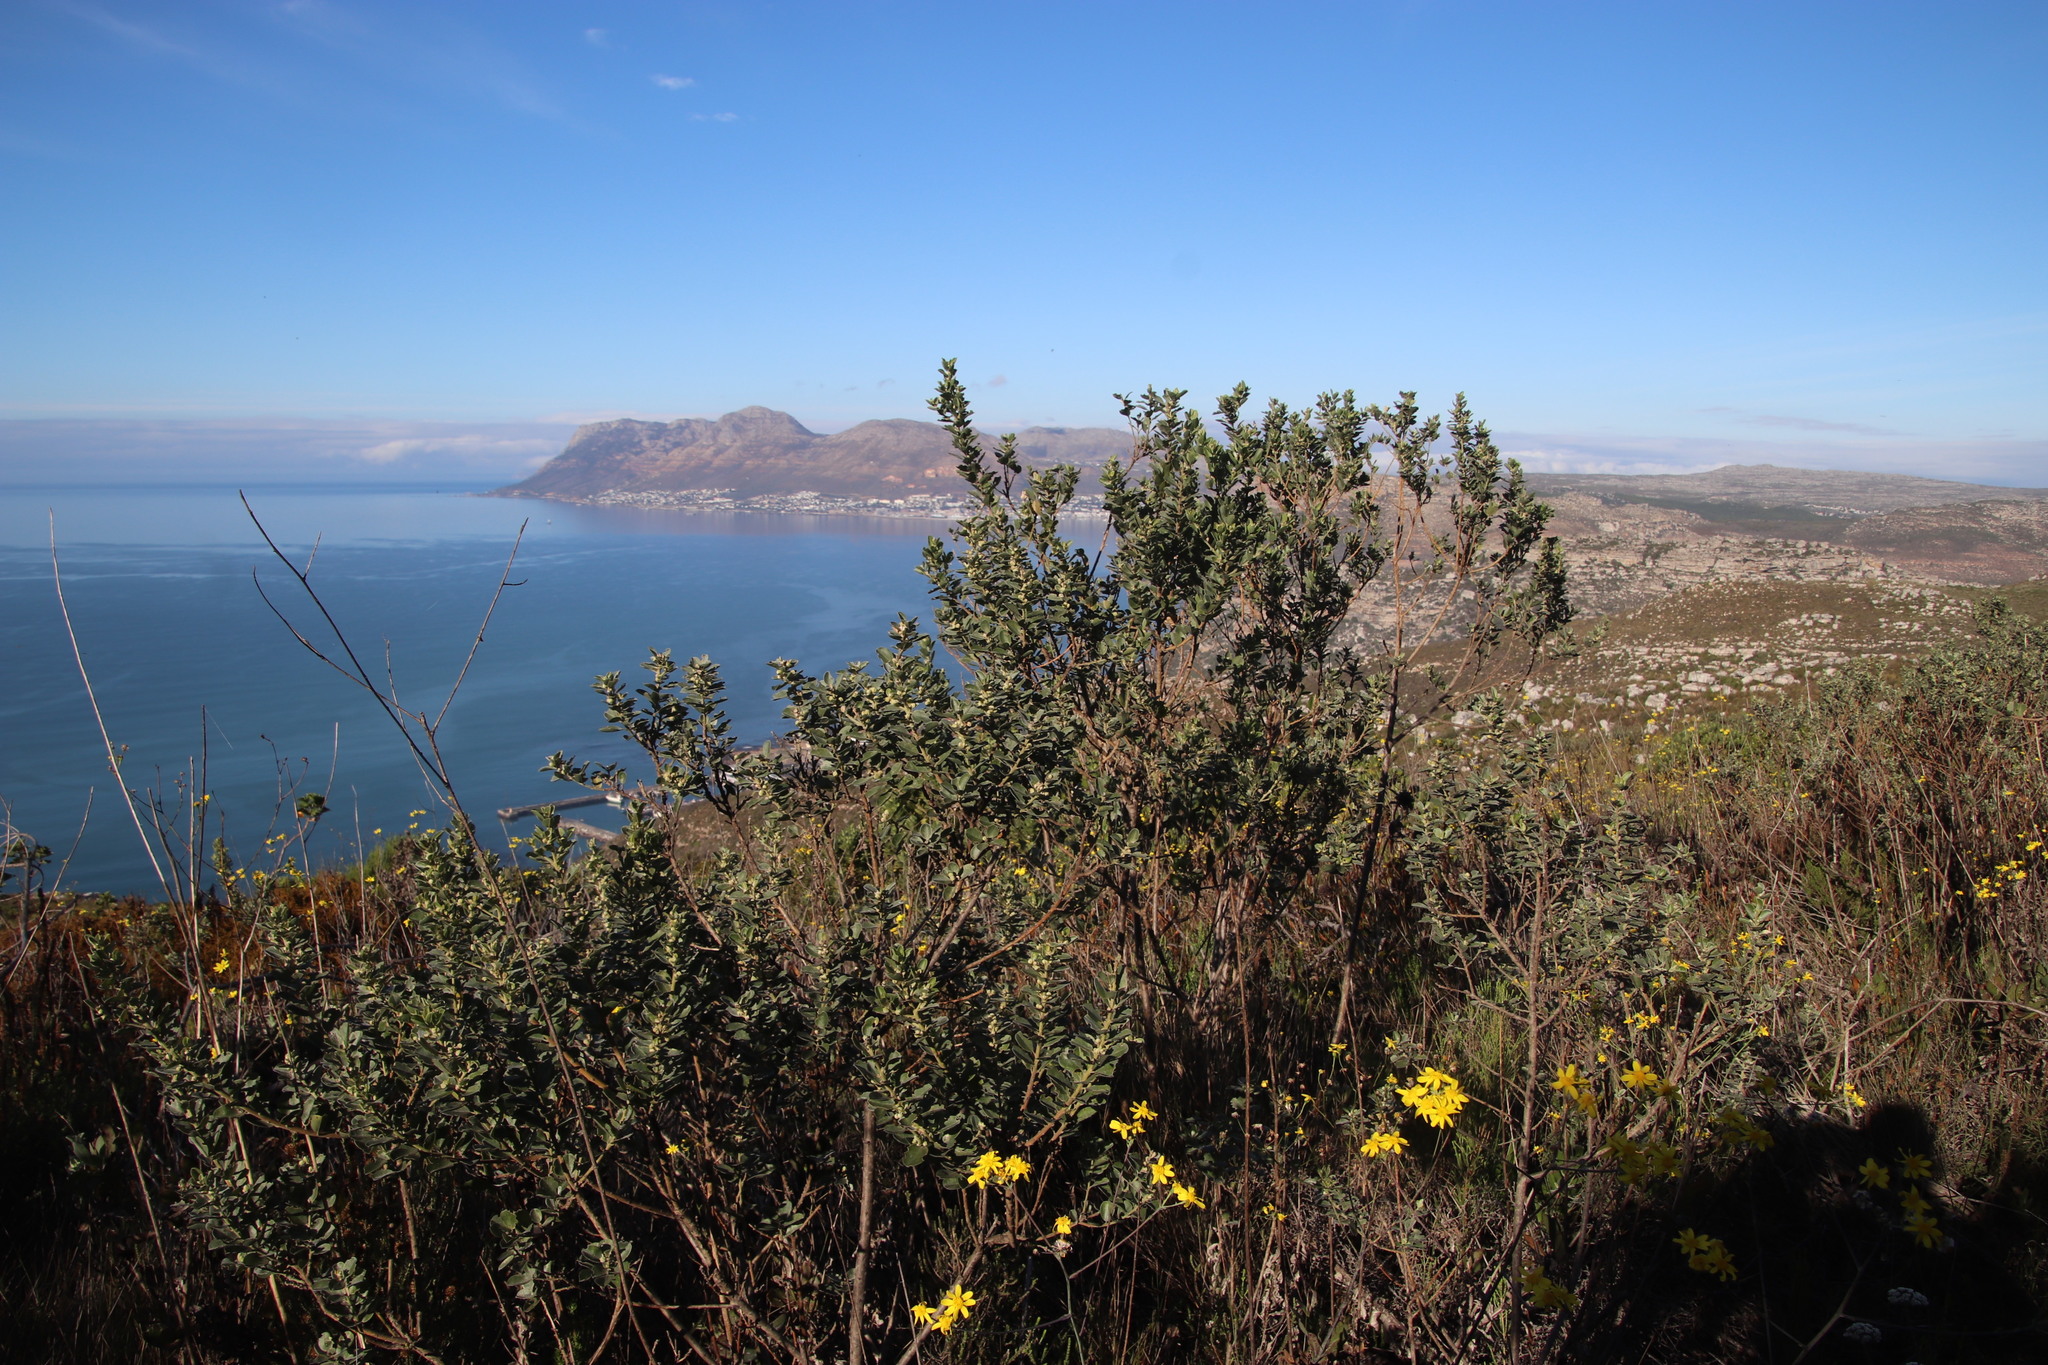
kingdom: Plantae
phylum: Tracheophyta
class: Magnoliopsida
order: Fabales
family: Fabaceae
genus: Podalyria
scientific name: Podalyria calyptrata
